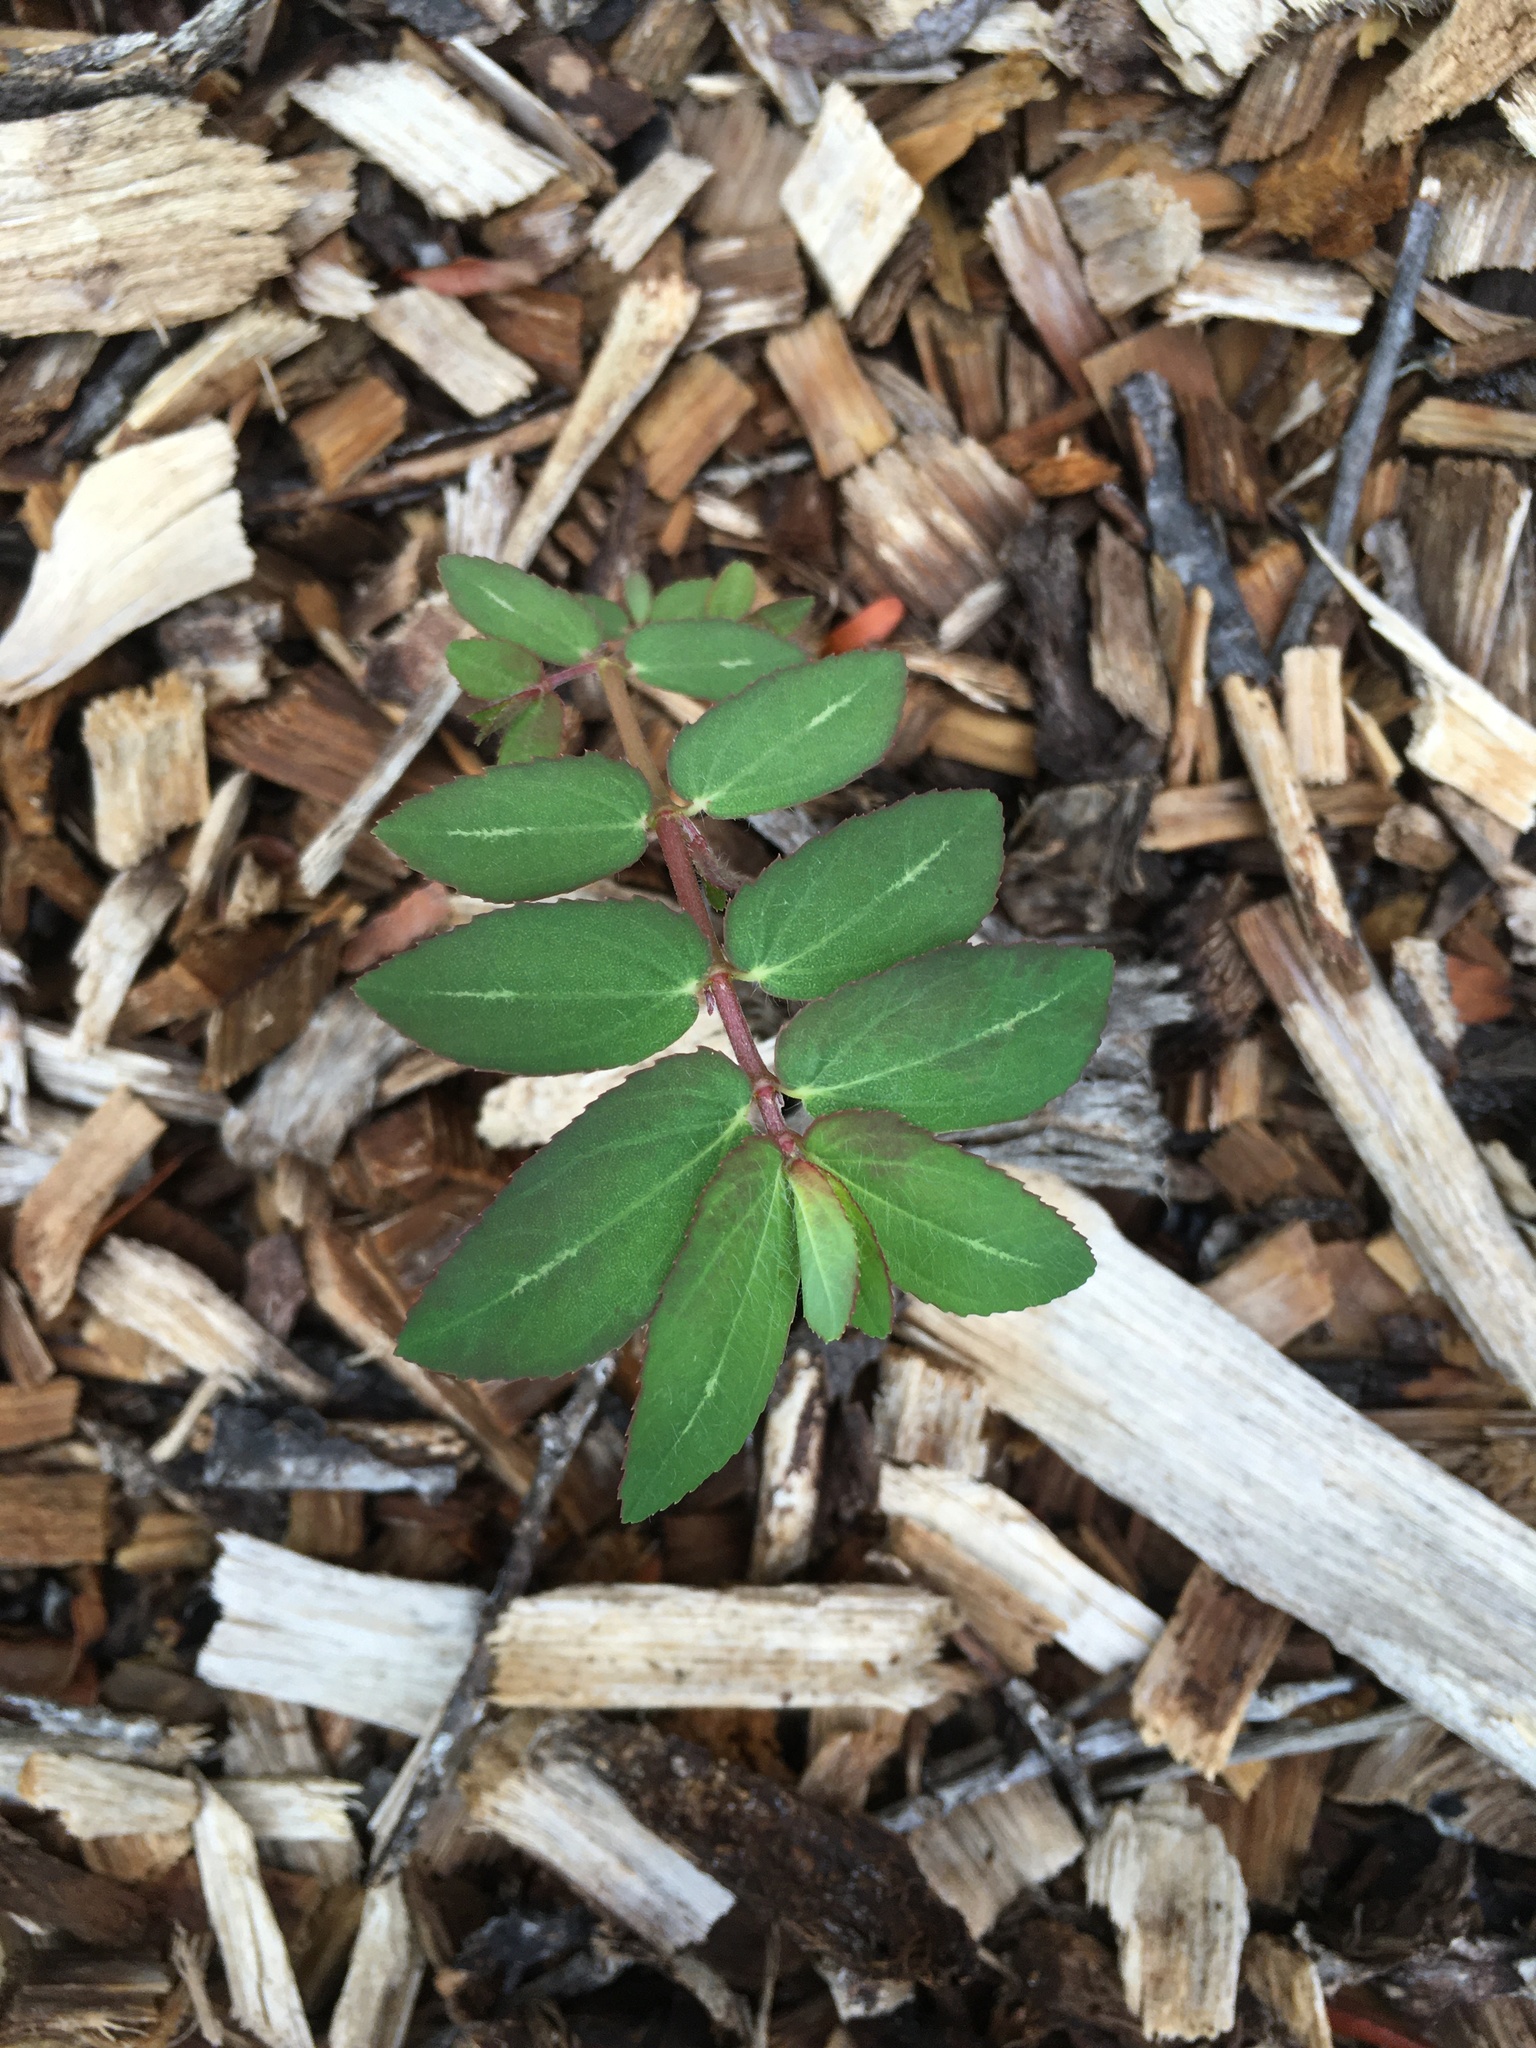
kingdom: Plantae
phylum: Tracheophyta
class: Magnoliopsida
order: Malpighiales
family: Euphorbiaceae
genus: Euphorbia
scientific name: Euphorbia nutans
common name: Eyebane
